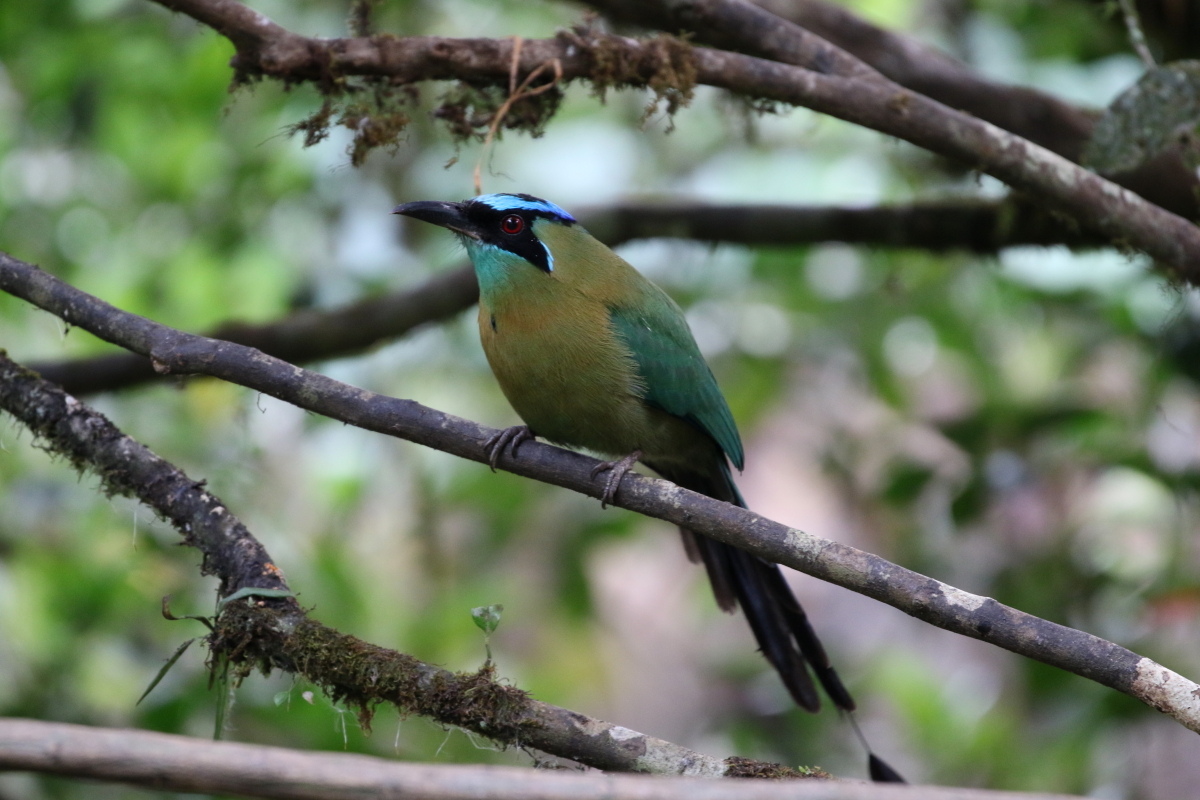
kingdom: Animalia
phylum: Chordata
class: Aves
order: Coraciiformes
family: Momotidae
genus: Momotus
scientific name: Momotus lessonii
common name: Lesson's motmot
